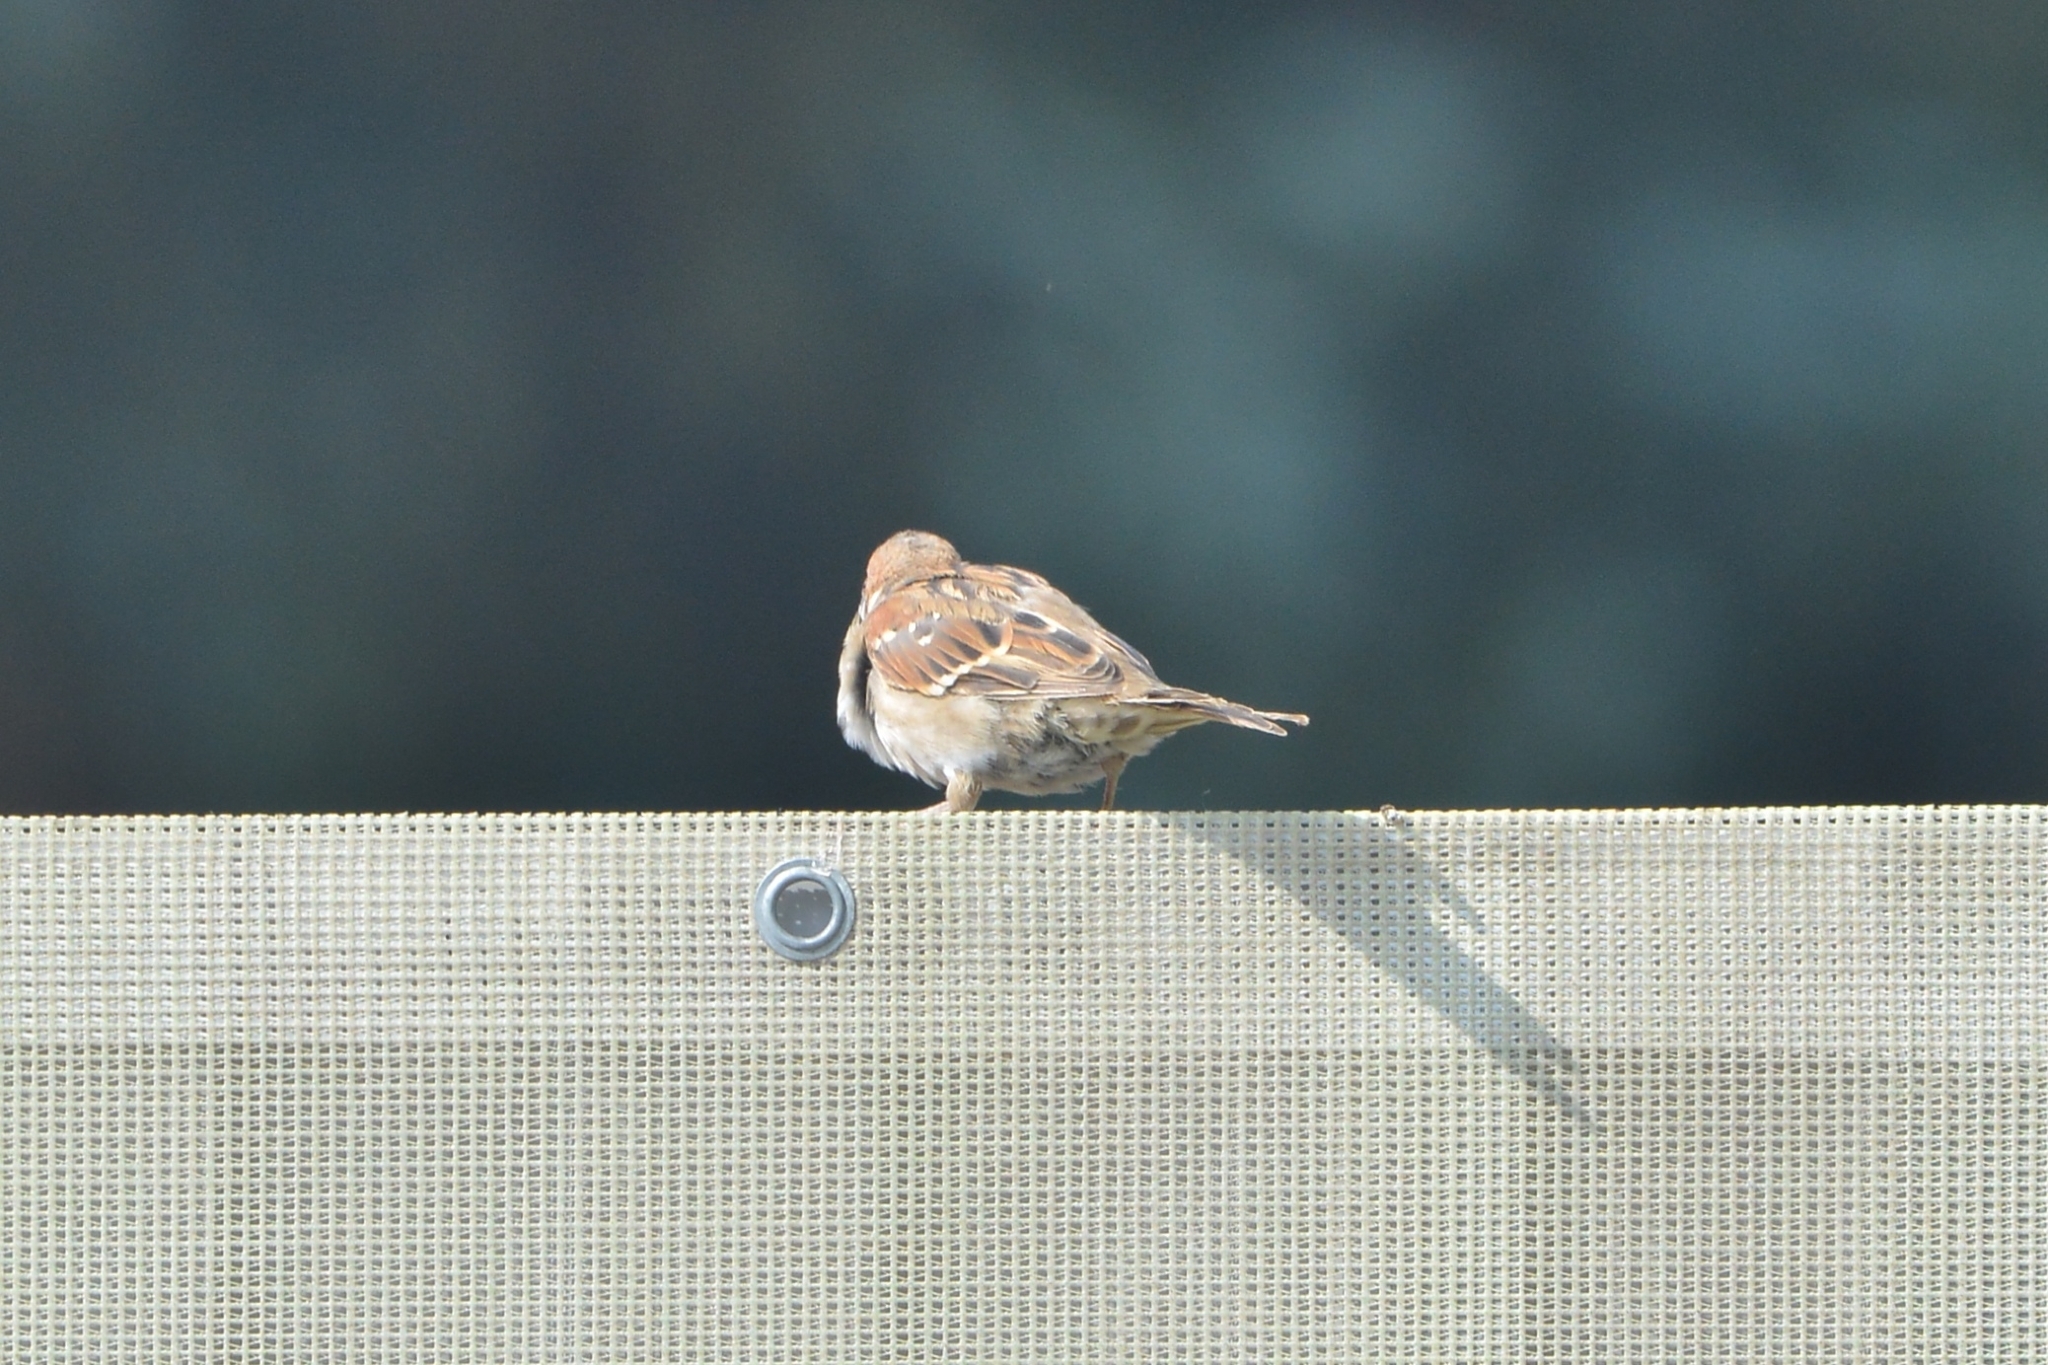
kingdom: Animalia
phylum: Chordata
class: Aves
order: Passeriformes
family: Passeridae
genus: Passer
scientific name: Passer montanus
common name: Eurasian tree sparrow
